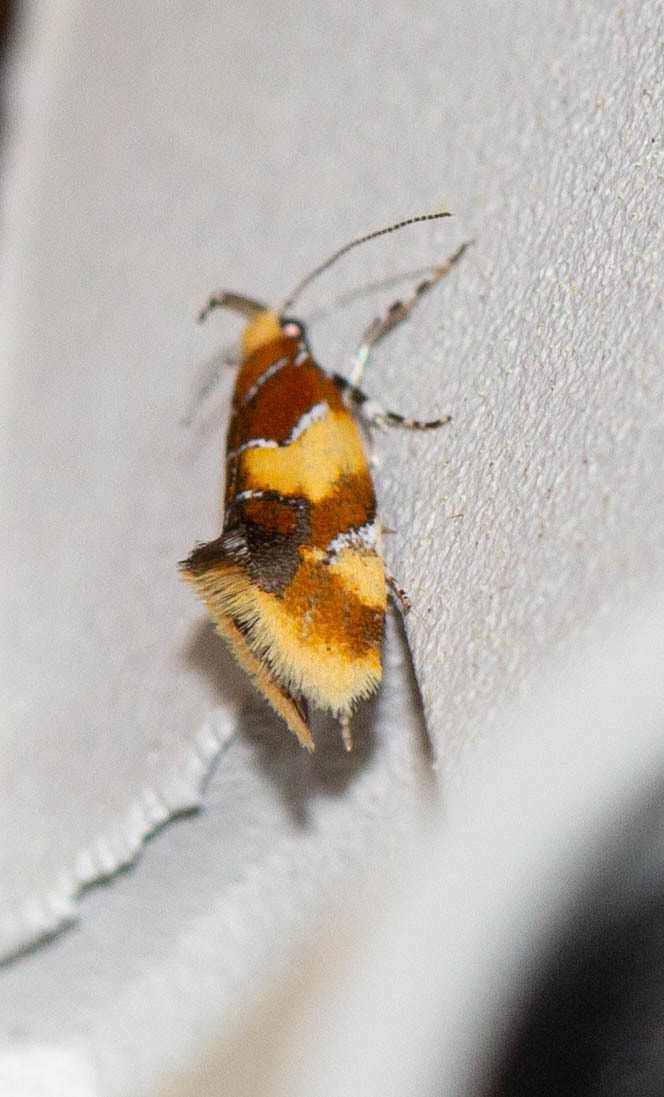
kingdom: Animalia
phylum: Arthropoda
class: Insecta
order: Lepidoptera
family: Oecophoridae
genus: Callima
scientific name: Callima argenticinctella
